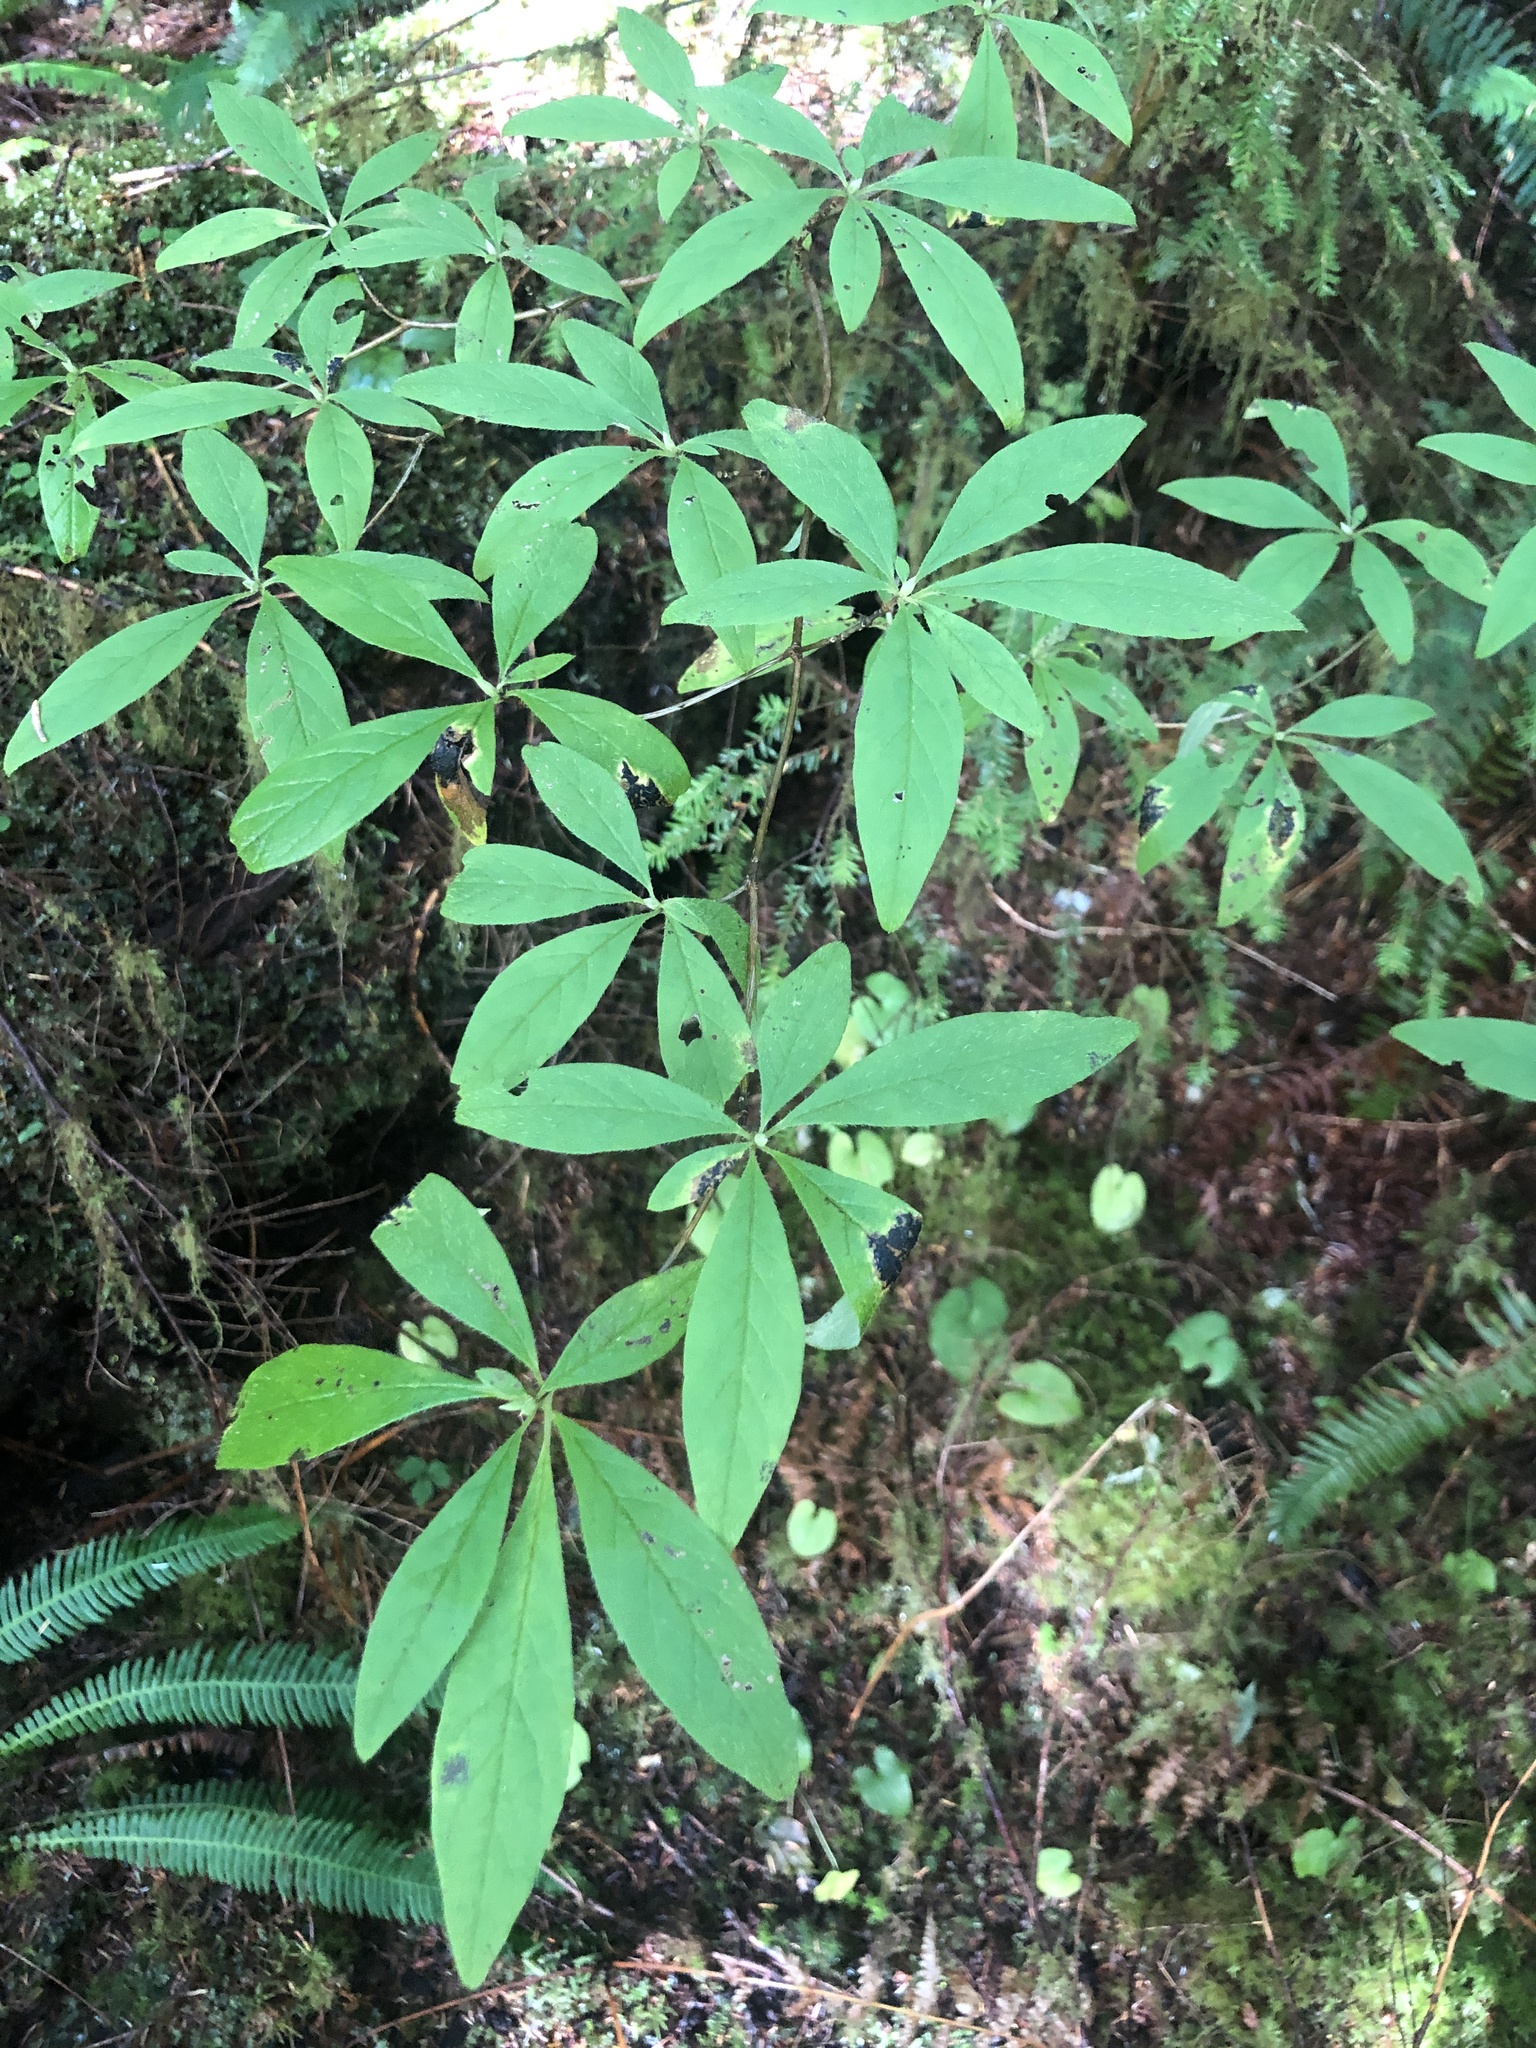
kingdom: Plantae
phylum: Tracheophyta
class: Magnoliopsida
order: Ericales
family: Ericaceae
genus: Rhododendron
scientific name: Rhododendron menziesii
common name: Pacific menziesia
